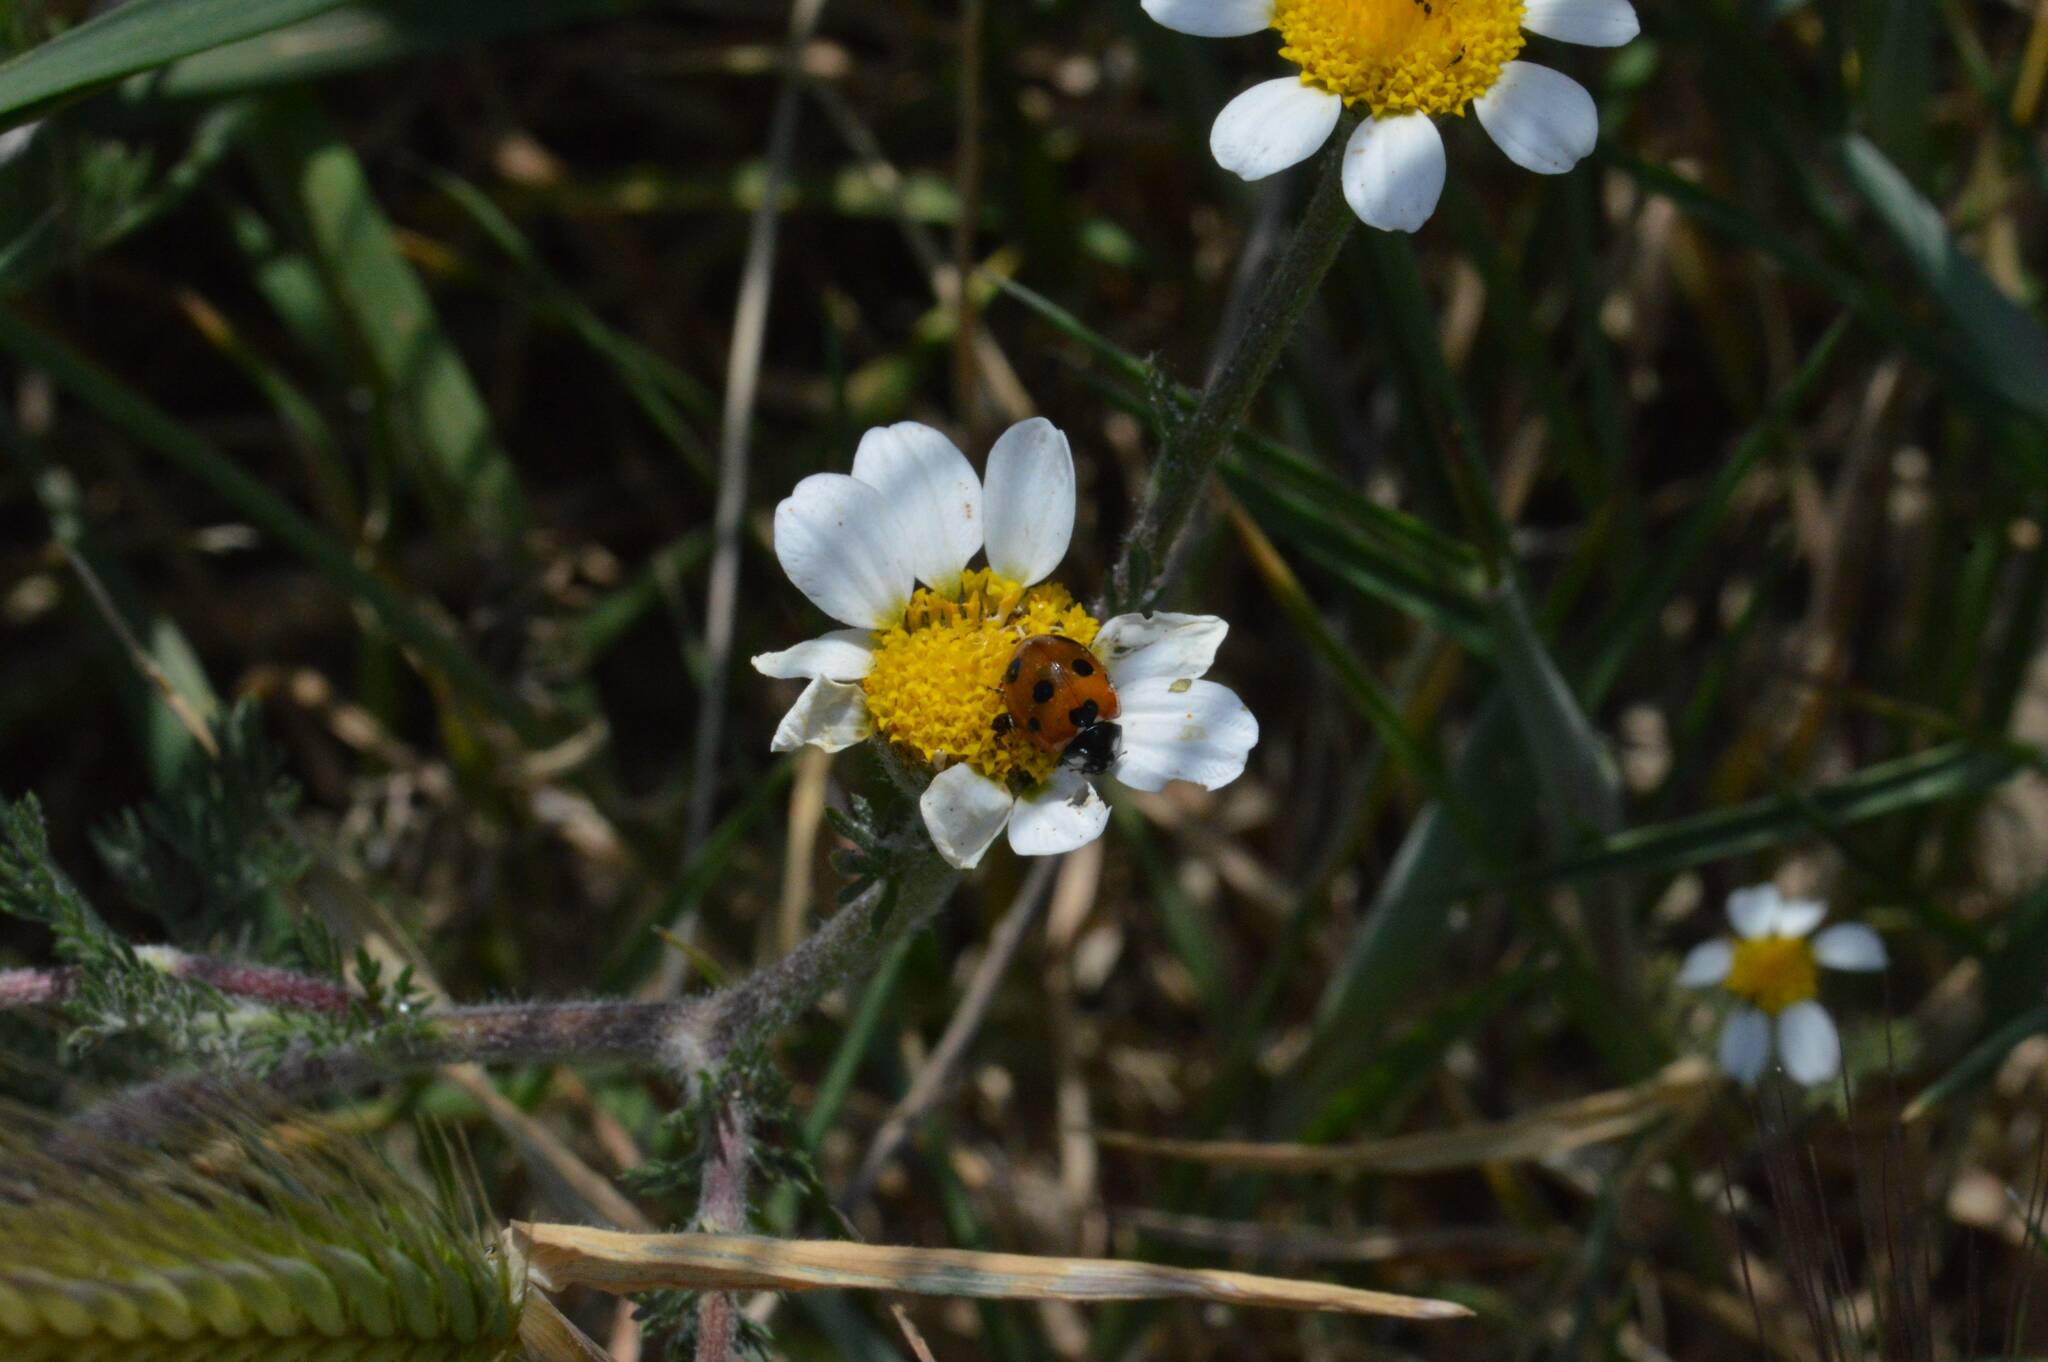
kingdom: Animalia
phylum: Arthropoda
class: Insecta
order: Coleoptera
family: Coccinellidae
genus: Coccinella
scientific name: Coccinella algerica
